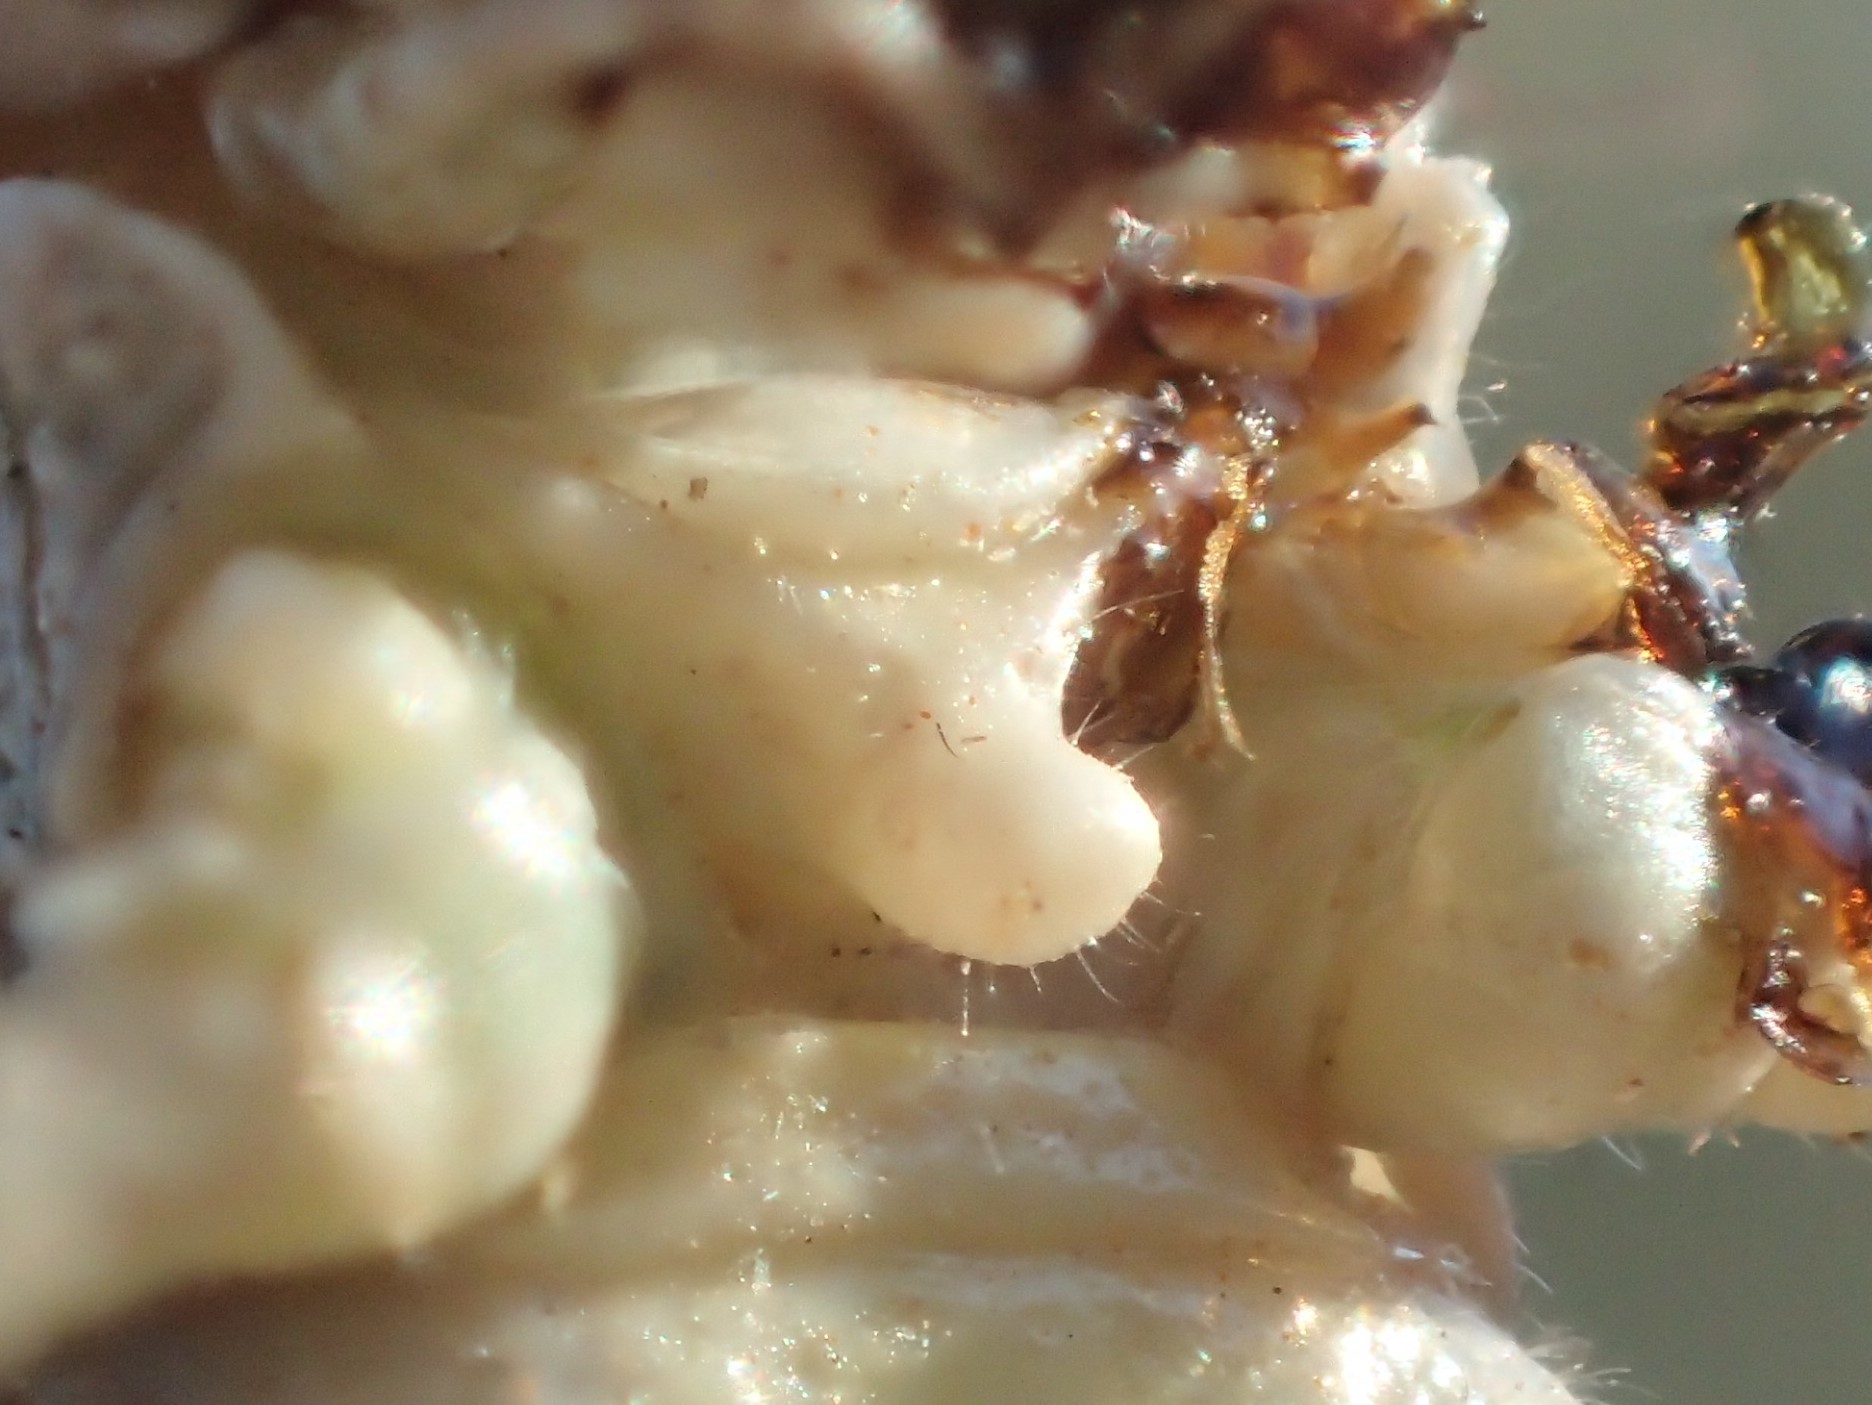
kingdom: Animalia
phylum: Arthropoda
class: Insecta
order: Orthoptera
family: Acrididae
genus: Erythropomala
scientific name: Erythropomala amaena
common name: Pleasing grasshopper
